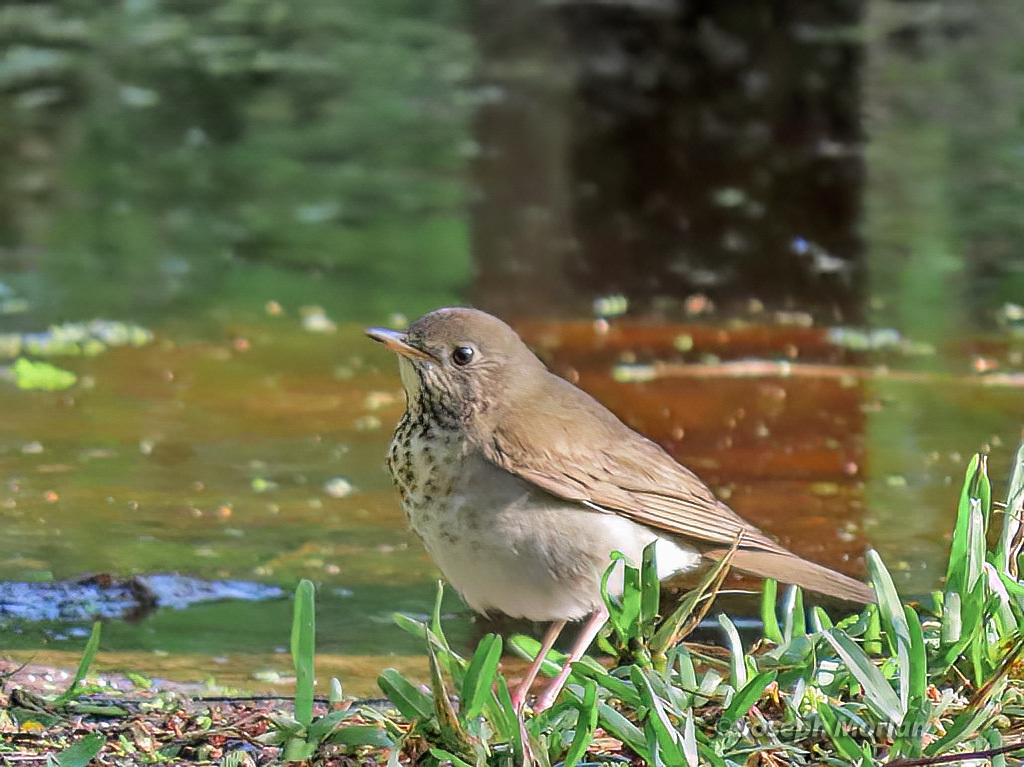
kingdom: Animalia
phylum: Chordata
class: Aves
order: Passeriformes
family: Turdidae
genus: Catharus
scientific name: Catharus minimus
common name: Grey-cheeked thrush
